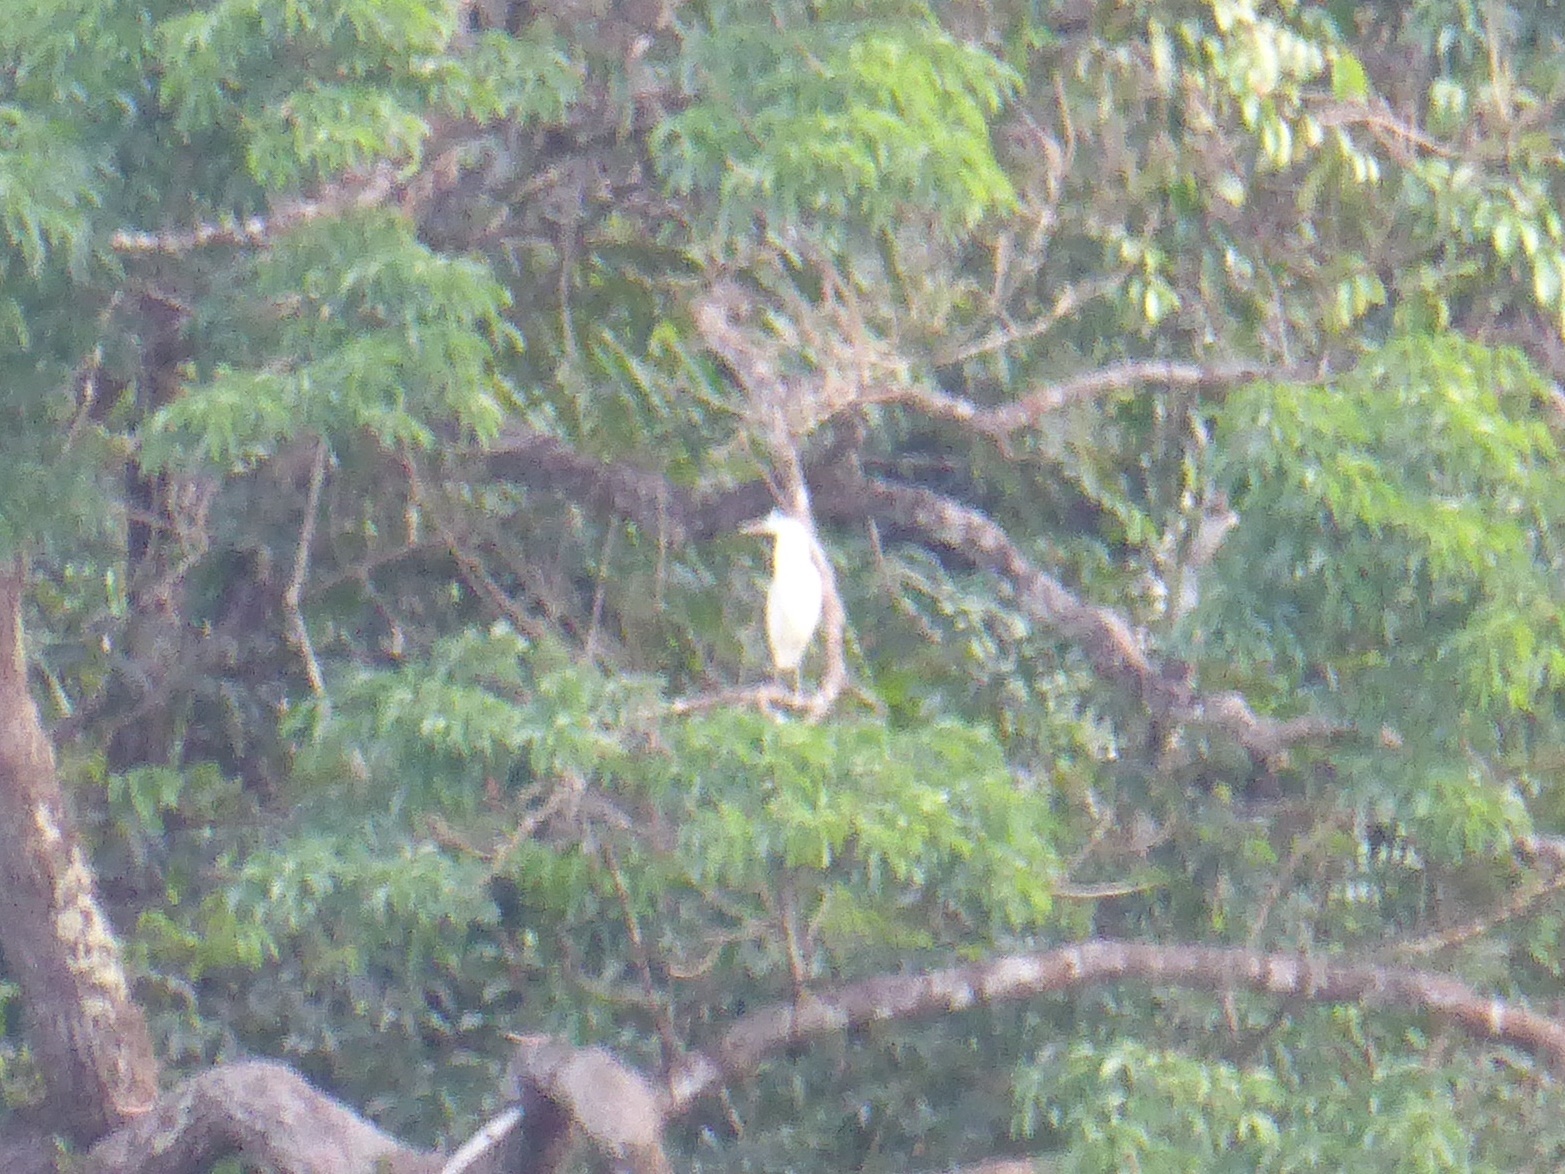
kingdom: Animalia
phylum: Chordata
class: Aves
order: Pelecaniformes
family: Ardeidae
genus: Pilherodius
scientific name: Pilherodius pileatus
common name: Capped heron
